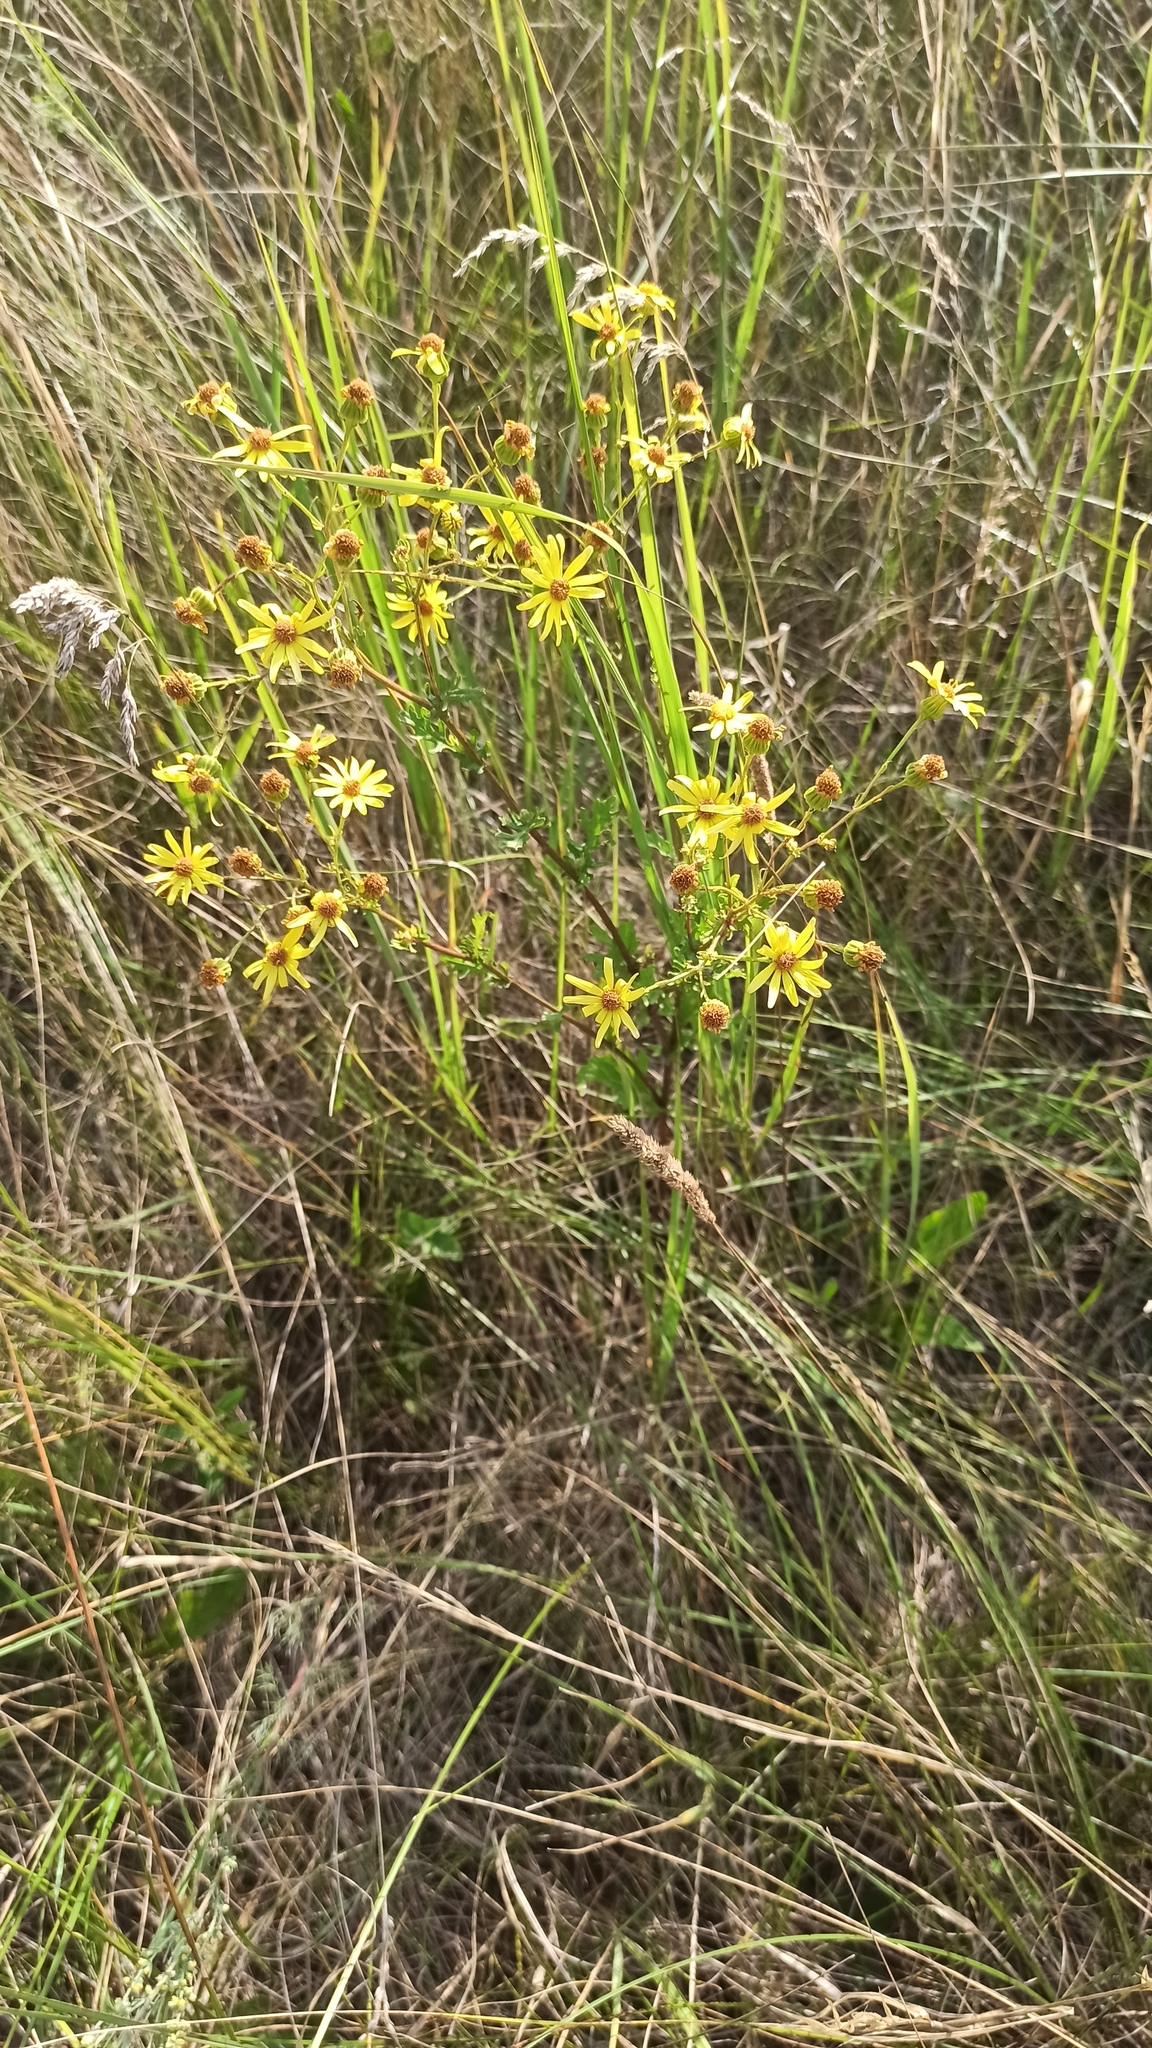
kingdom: Plantae
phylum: Tracheophyta
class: Magnoliopsida
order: Asterales
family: Asteraceae
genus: Jacobaea
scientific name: Jacobaea vulgaris
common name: Stinking willie
